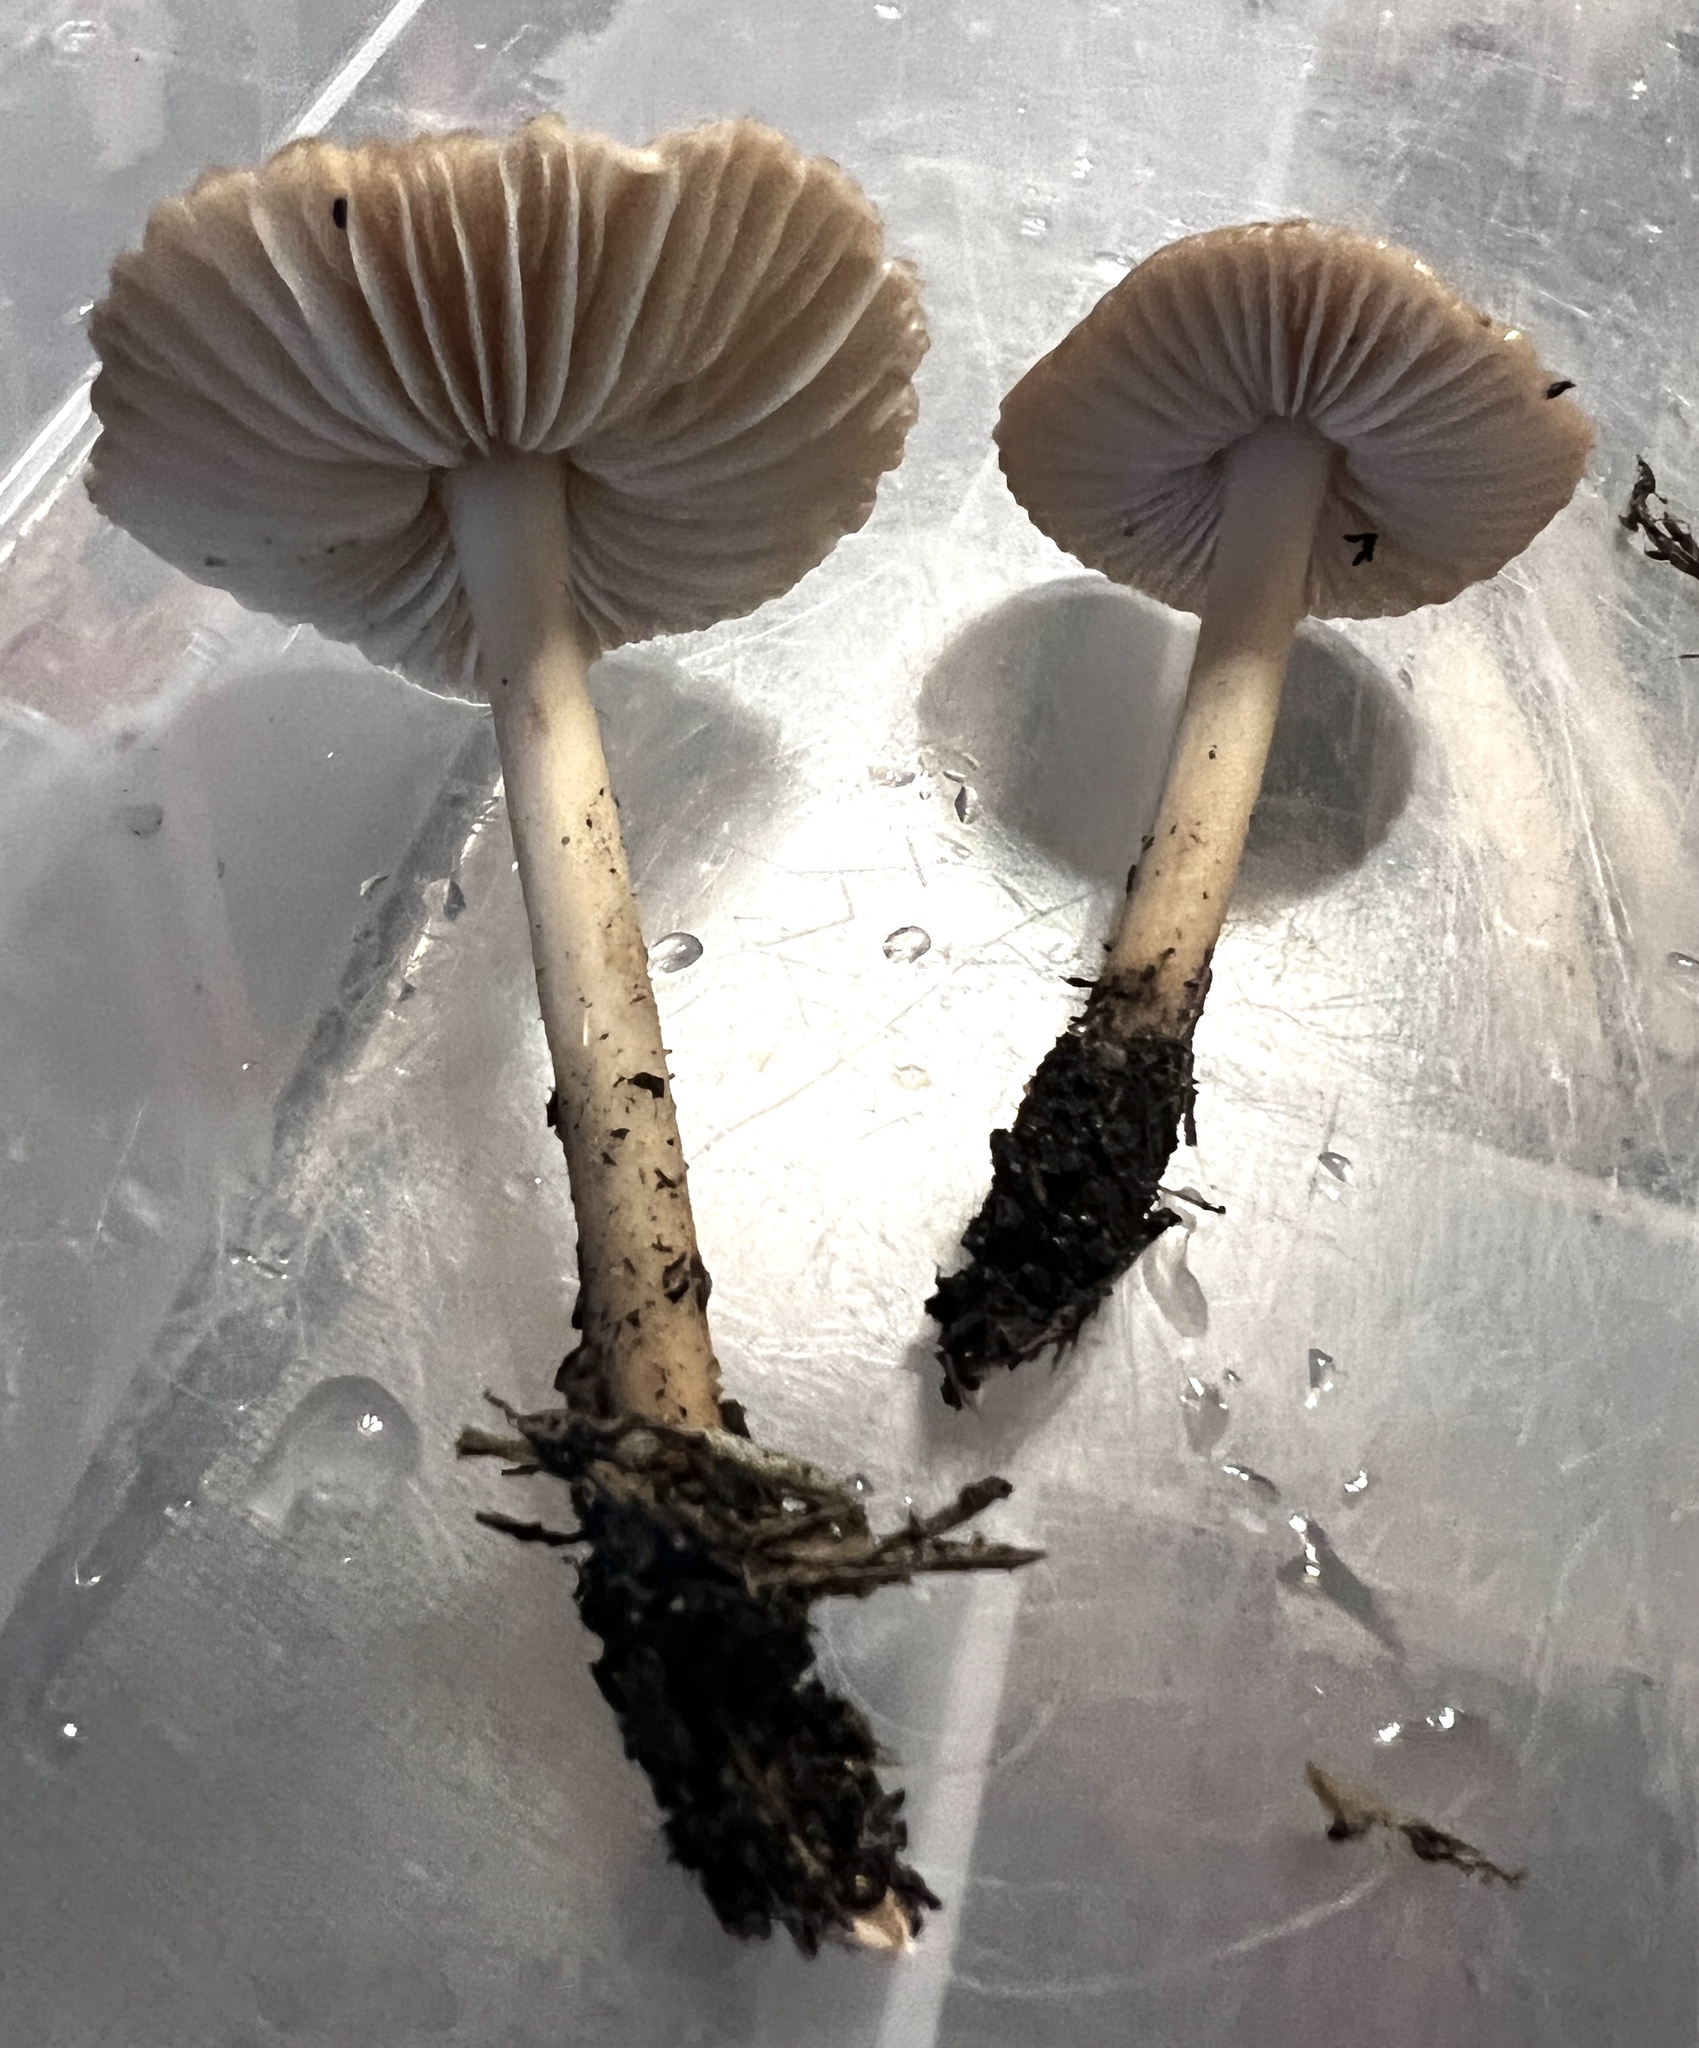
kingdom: Fungi
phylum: Basidiomycota
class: Agaricomycetes
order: Agaricales
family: Marasmiaceae
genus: Marasmius
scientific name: Marasmius oreades
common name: Fairy ring champignon
